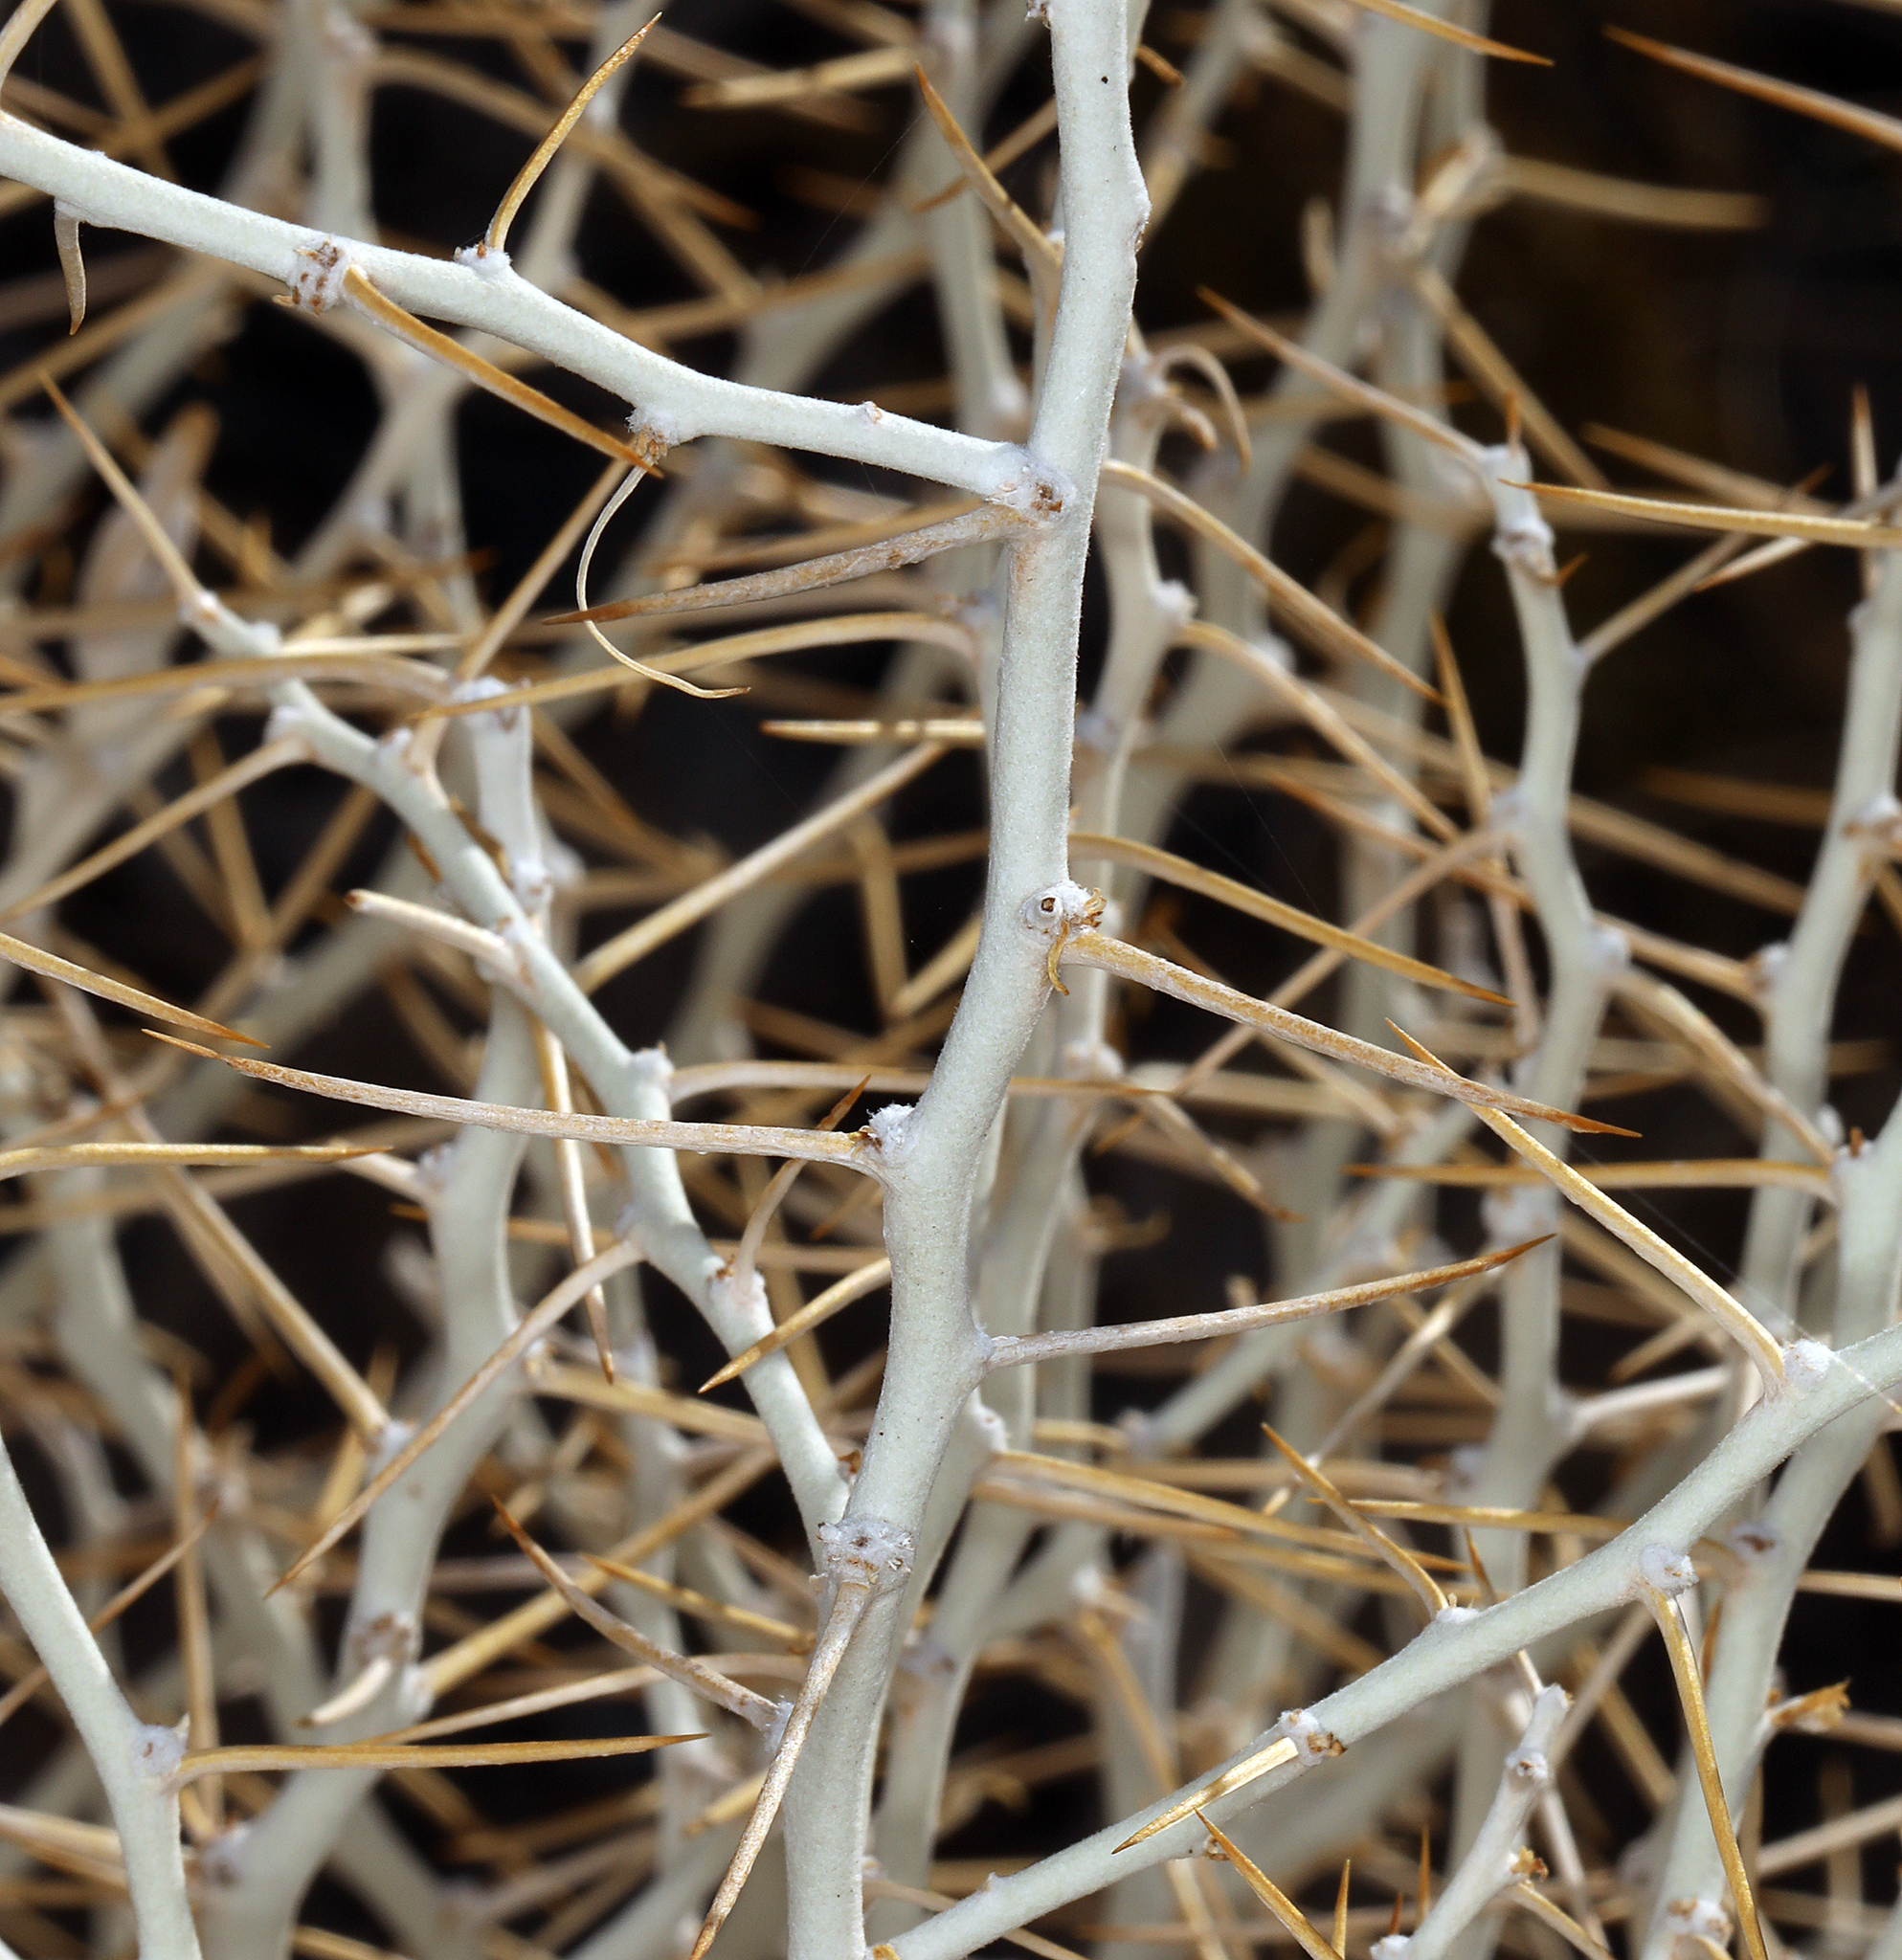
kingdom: Plantae
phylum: Tracheophyta
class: Magnoliopsida
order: Asterales
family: Asteraceae
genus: Tetradymia
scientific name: Tetradymia axillaris
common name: Long-spine horsebrush
